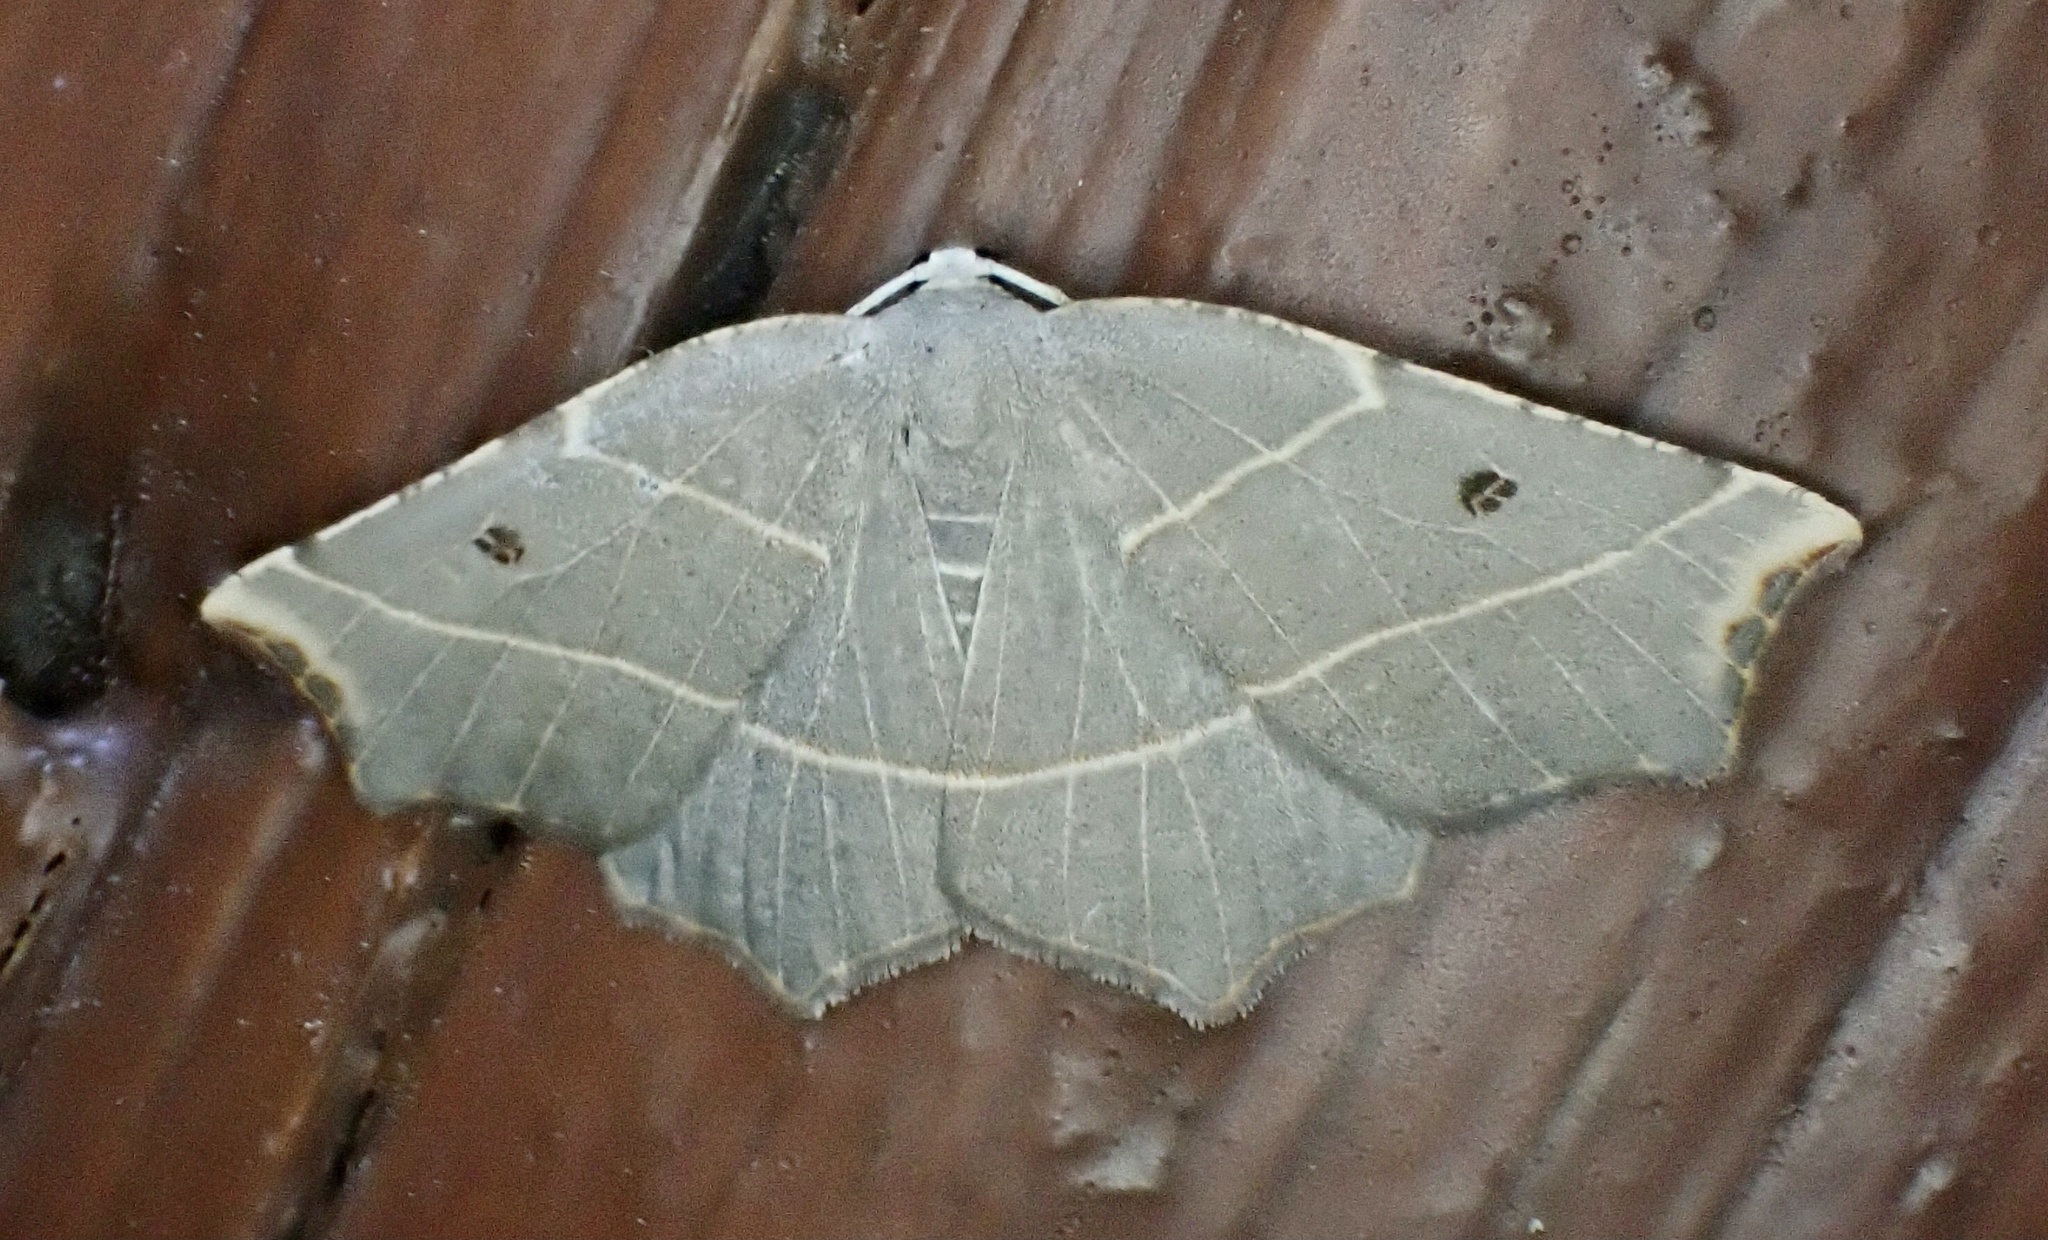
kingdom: Animalia
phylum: Arthropoda
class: Insecta
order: Lepidoptera
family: Geometridae
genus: Metanema
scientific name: Metanema inatomaria
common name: Pale metanema
